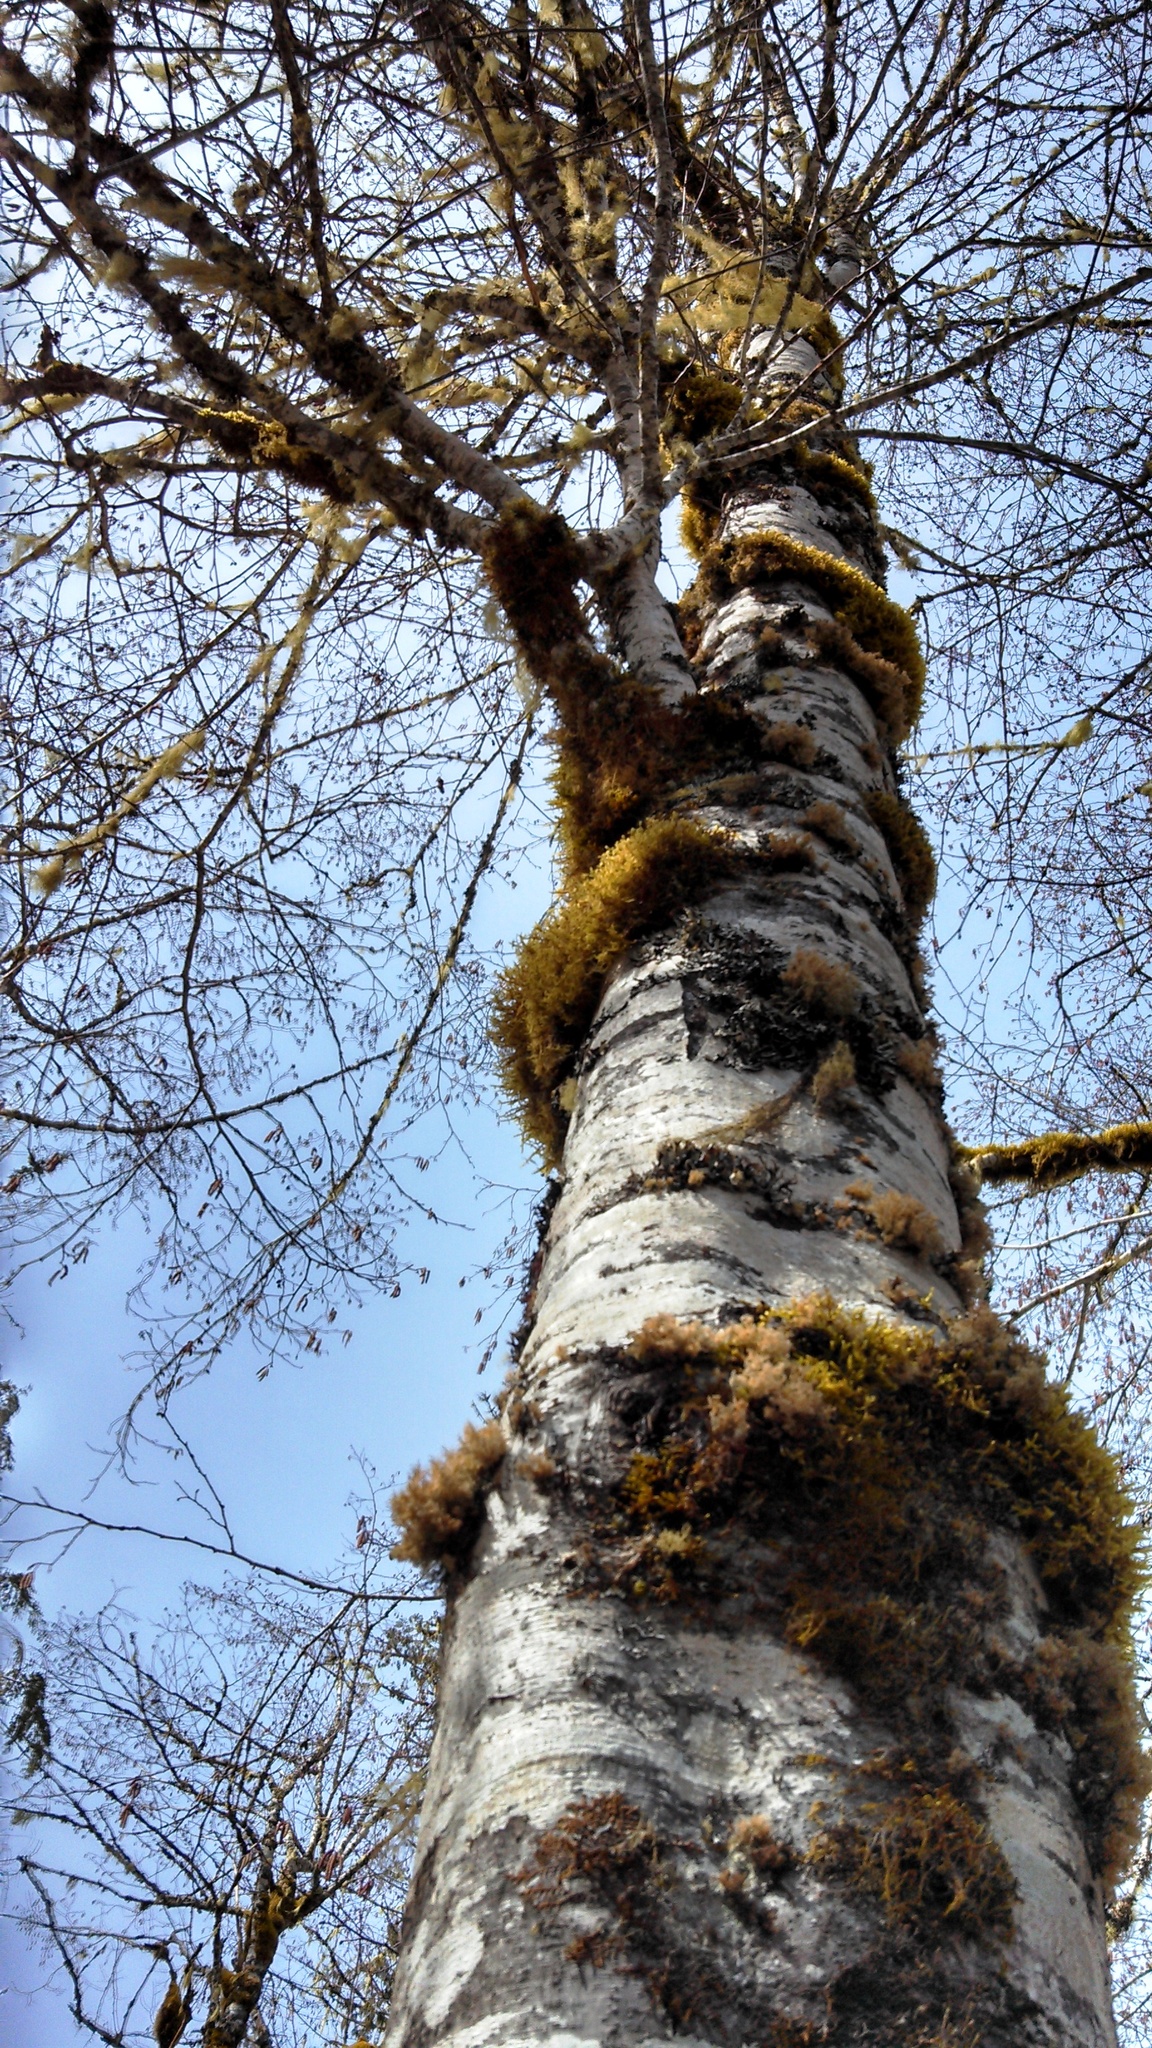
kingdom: Plantae
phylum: Tracheophyta
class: Magnoliopsida
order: Fagales
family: Betulaceae
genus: Alnus
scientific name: Alnus rubra
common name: Red alder
